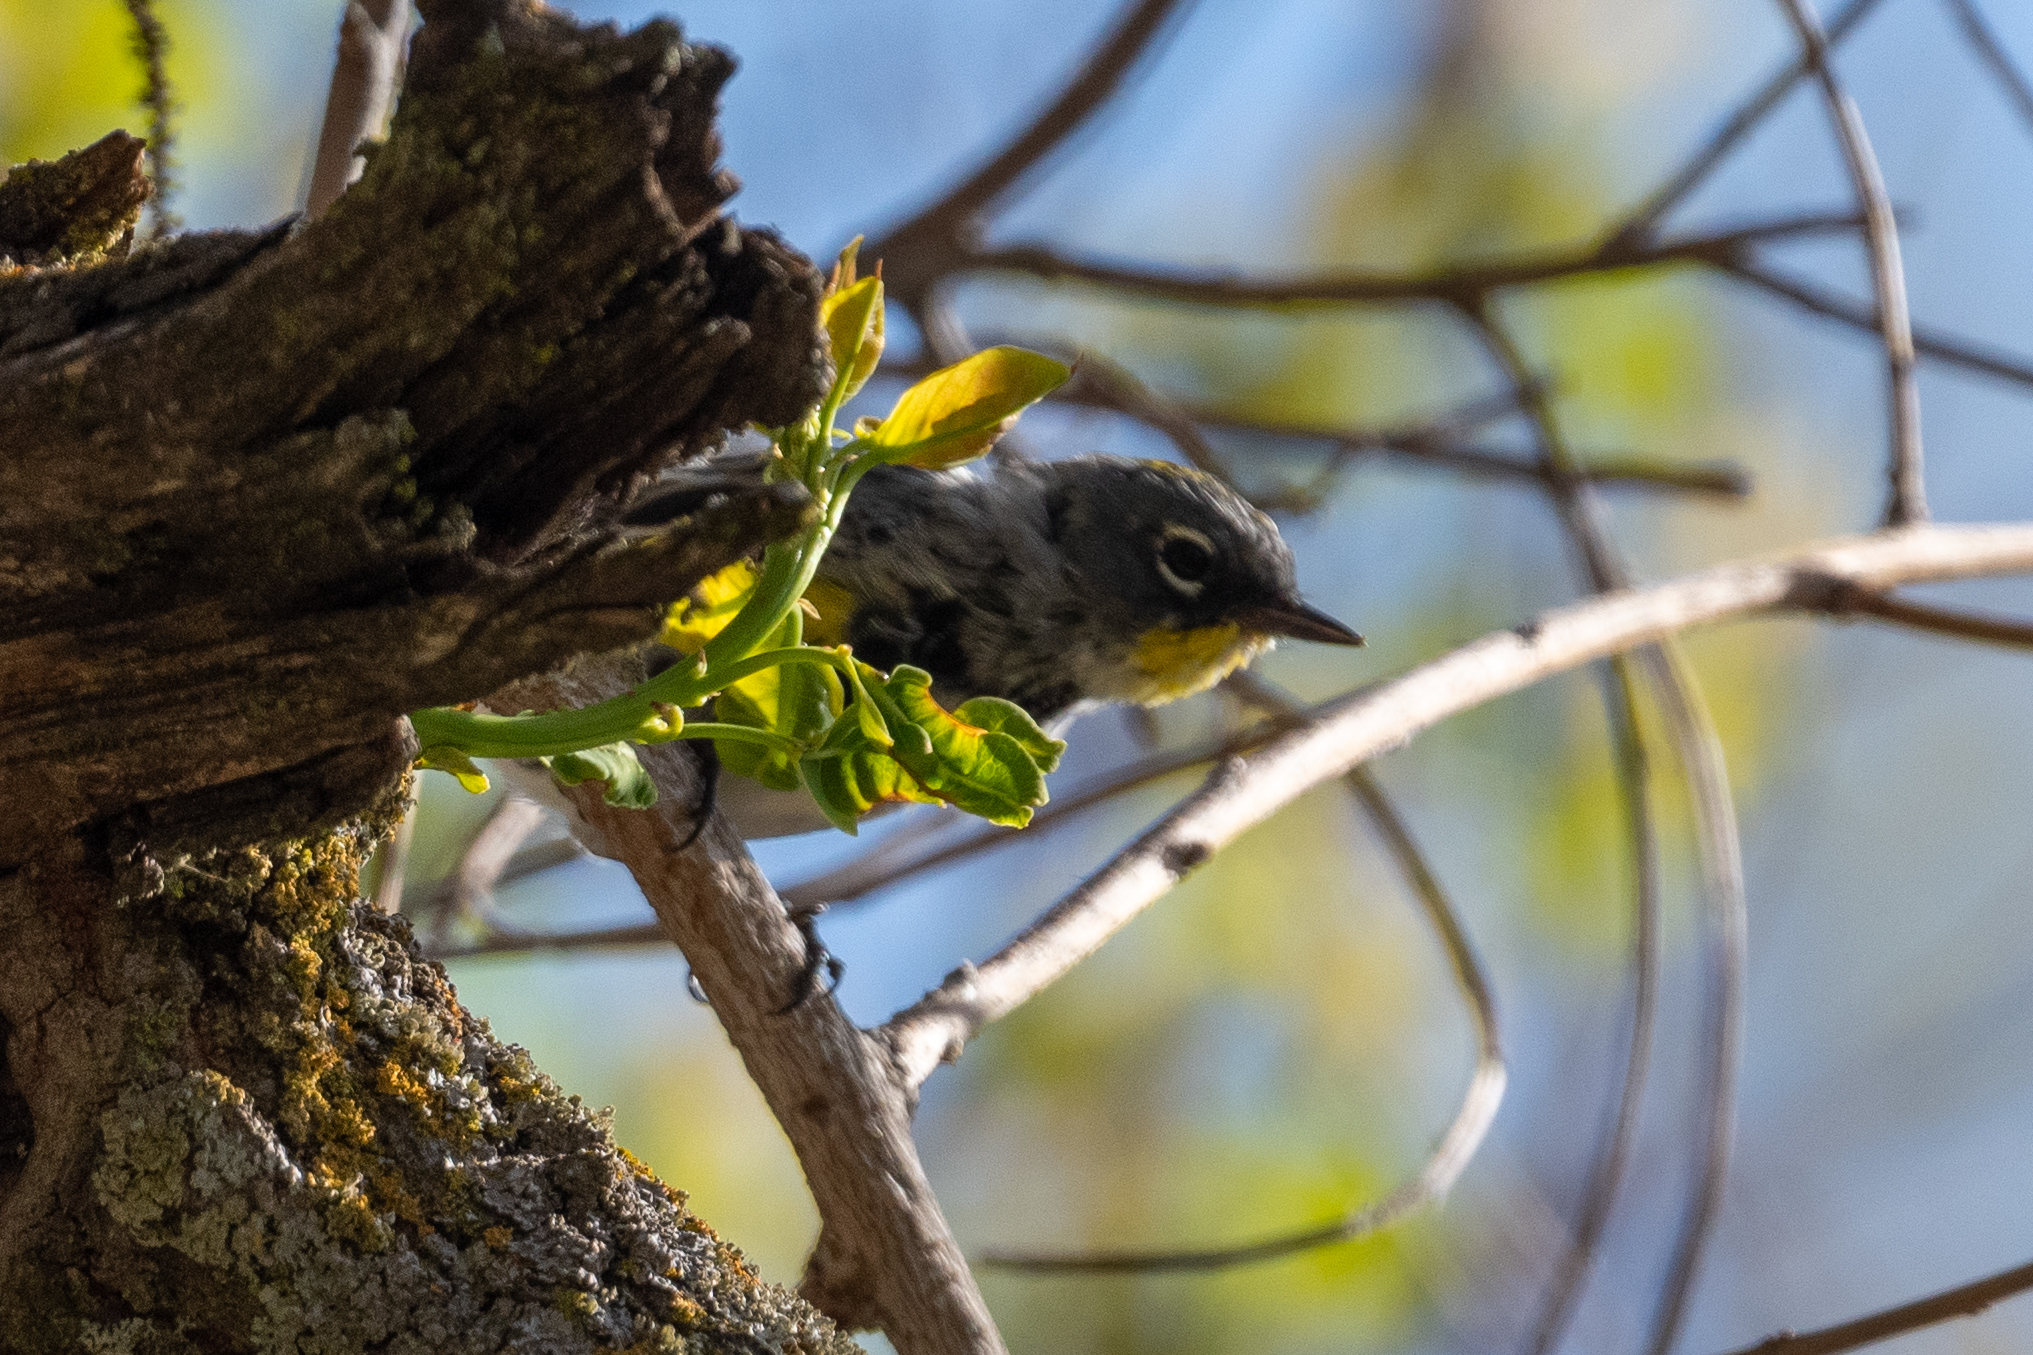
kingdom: Animalia
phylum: Chordata
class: Aves
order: Passeriformes
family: Parulidae
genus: Setophaga
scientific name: Setophaga coronata
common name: Myrtle warbler
